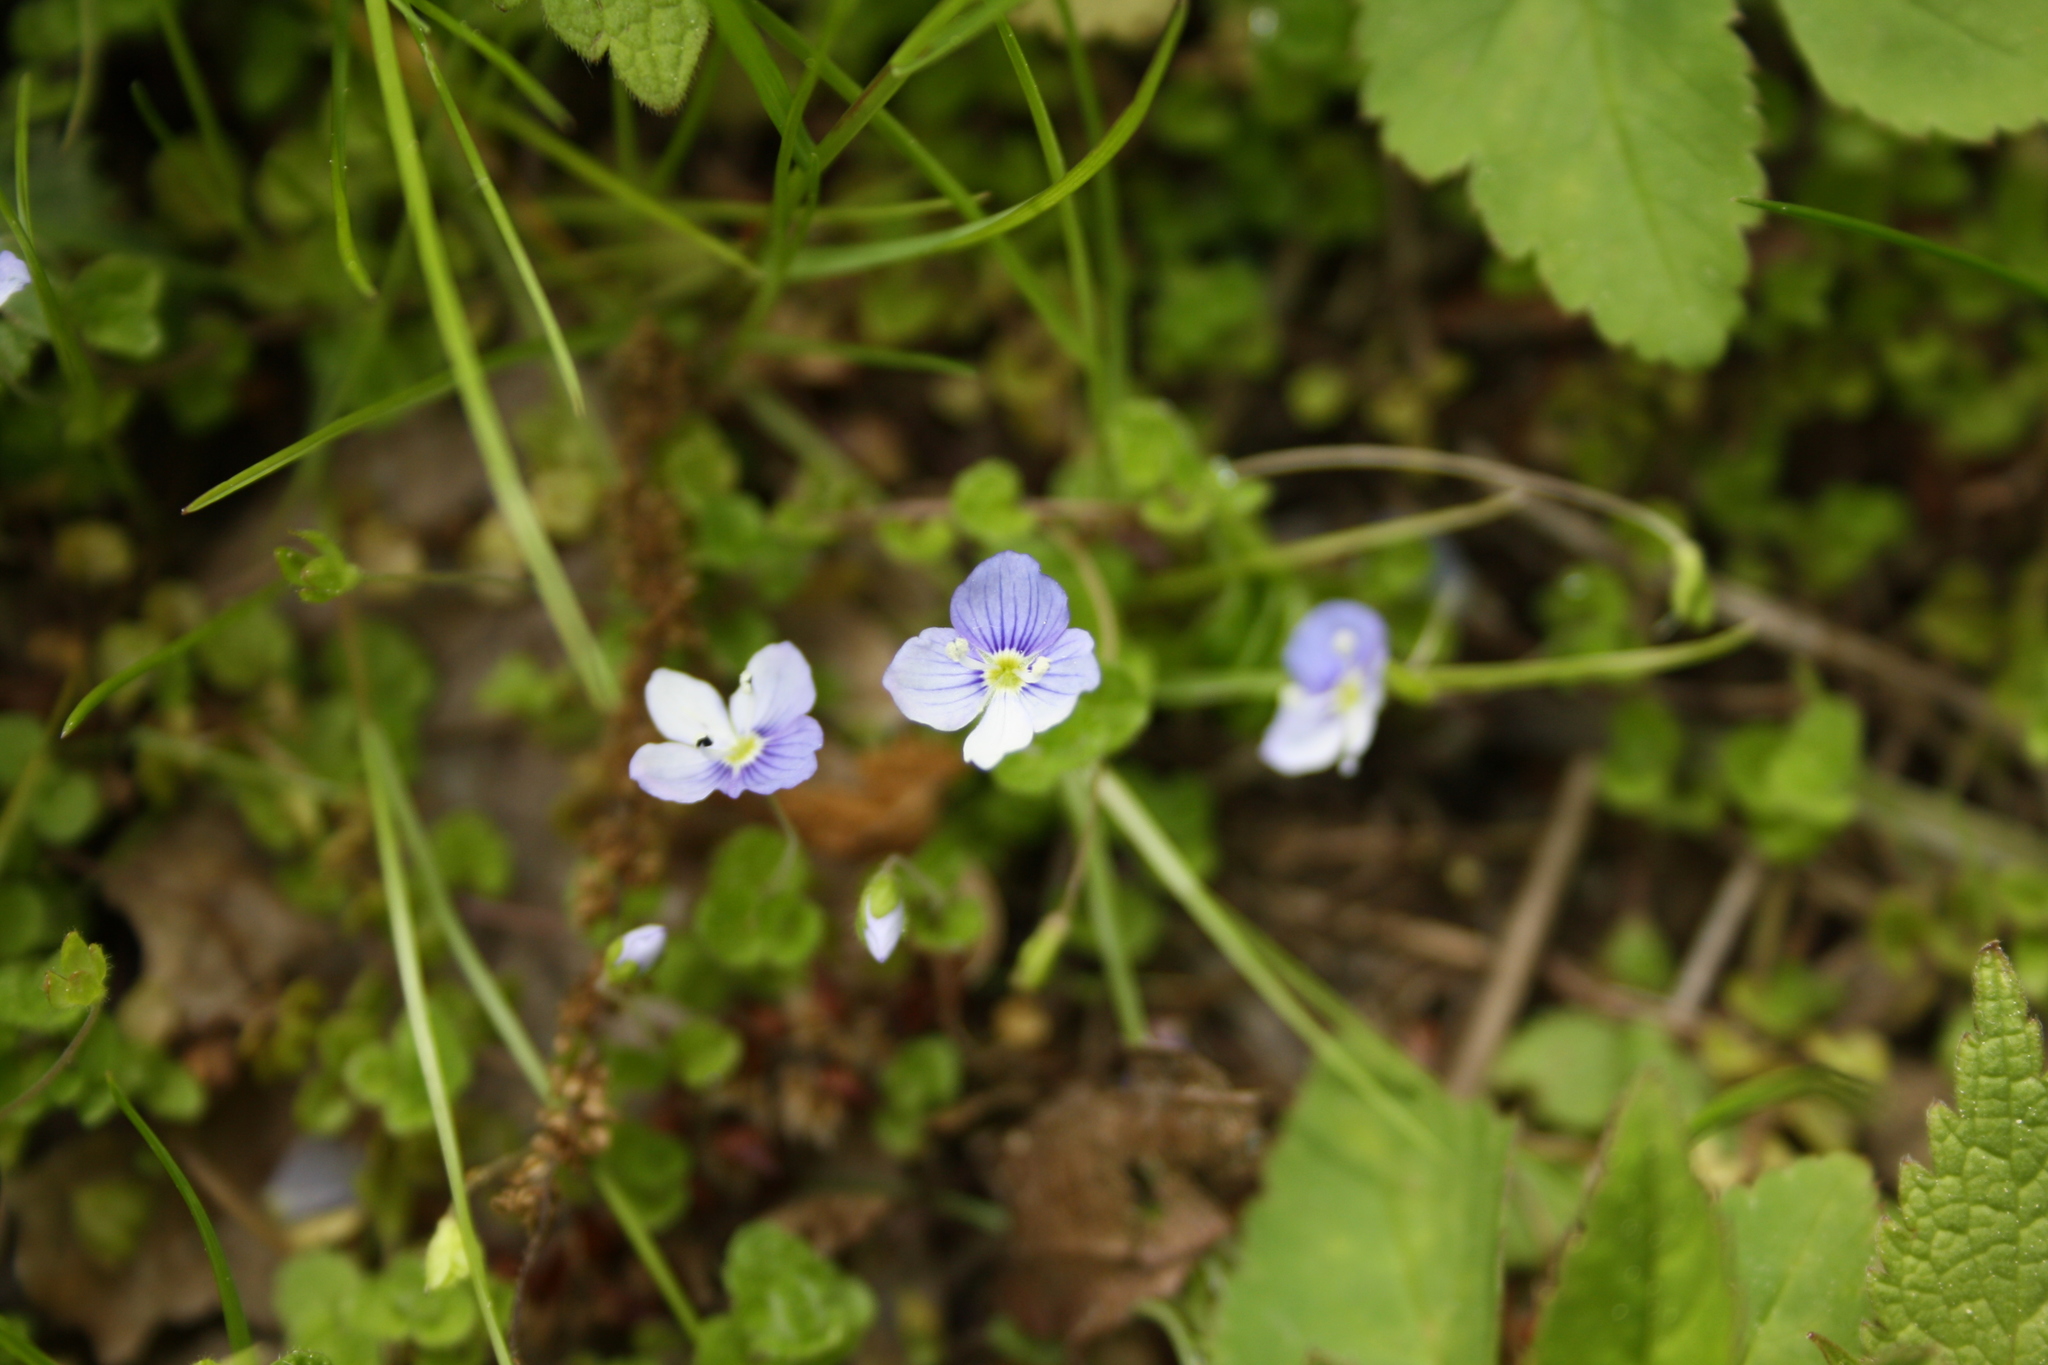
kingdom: Plantae
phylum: Tracheophyta
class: Magnoliopsida
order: Lamiales
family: Plantaginaceae
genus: Veronica
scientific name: Veronica filiformis
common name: Slender speedwell
